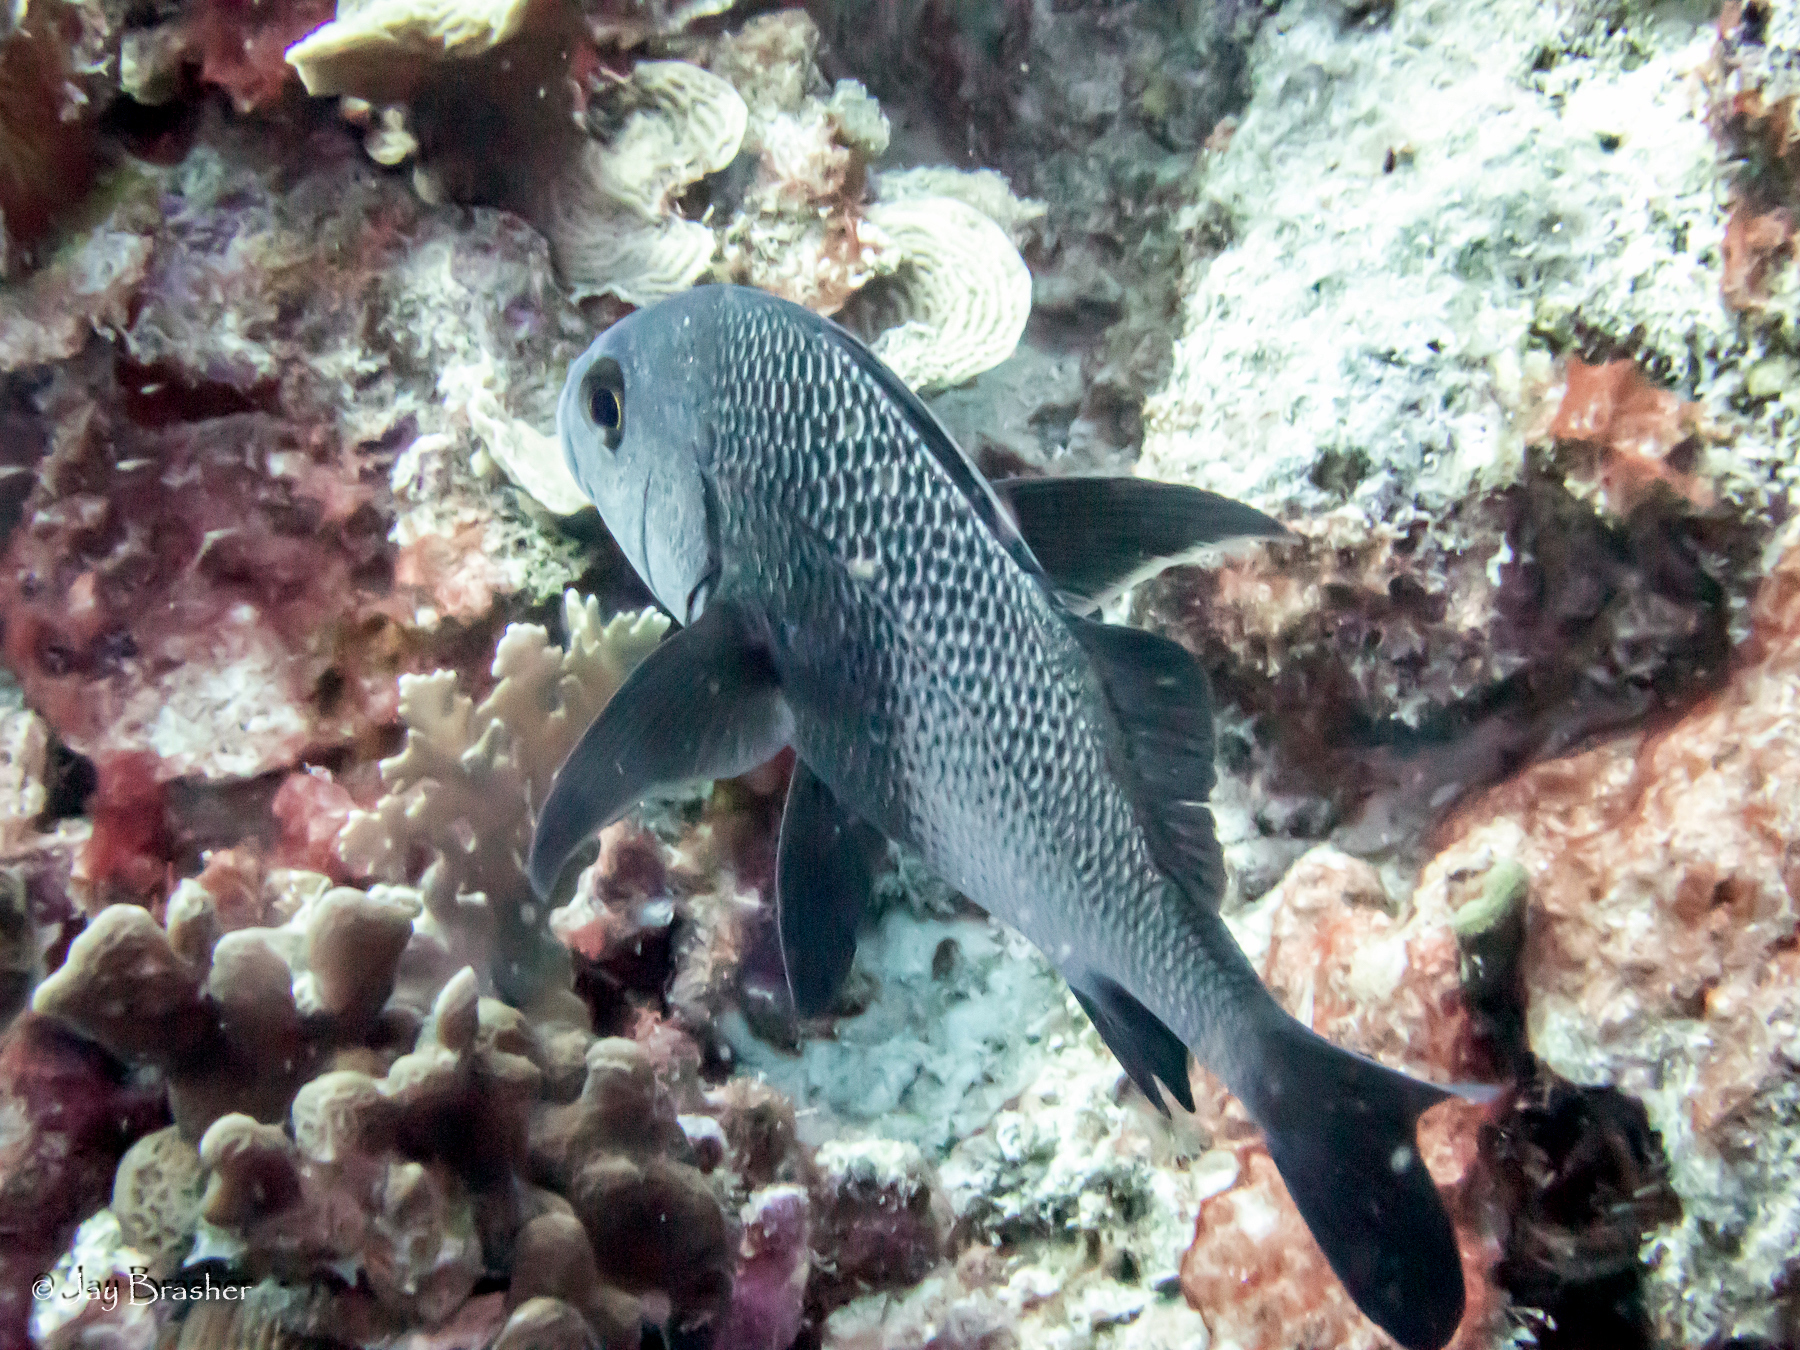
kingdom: Animalia
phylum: Chordata
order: Perciformes
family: Haemulidae
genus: Anisotremus
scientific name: Anisotremus surinamensis
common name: Black margate
